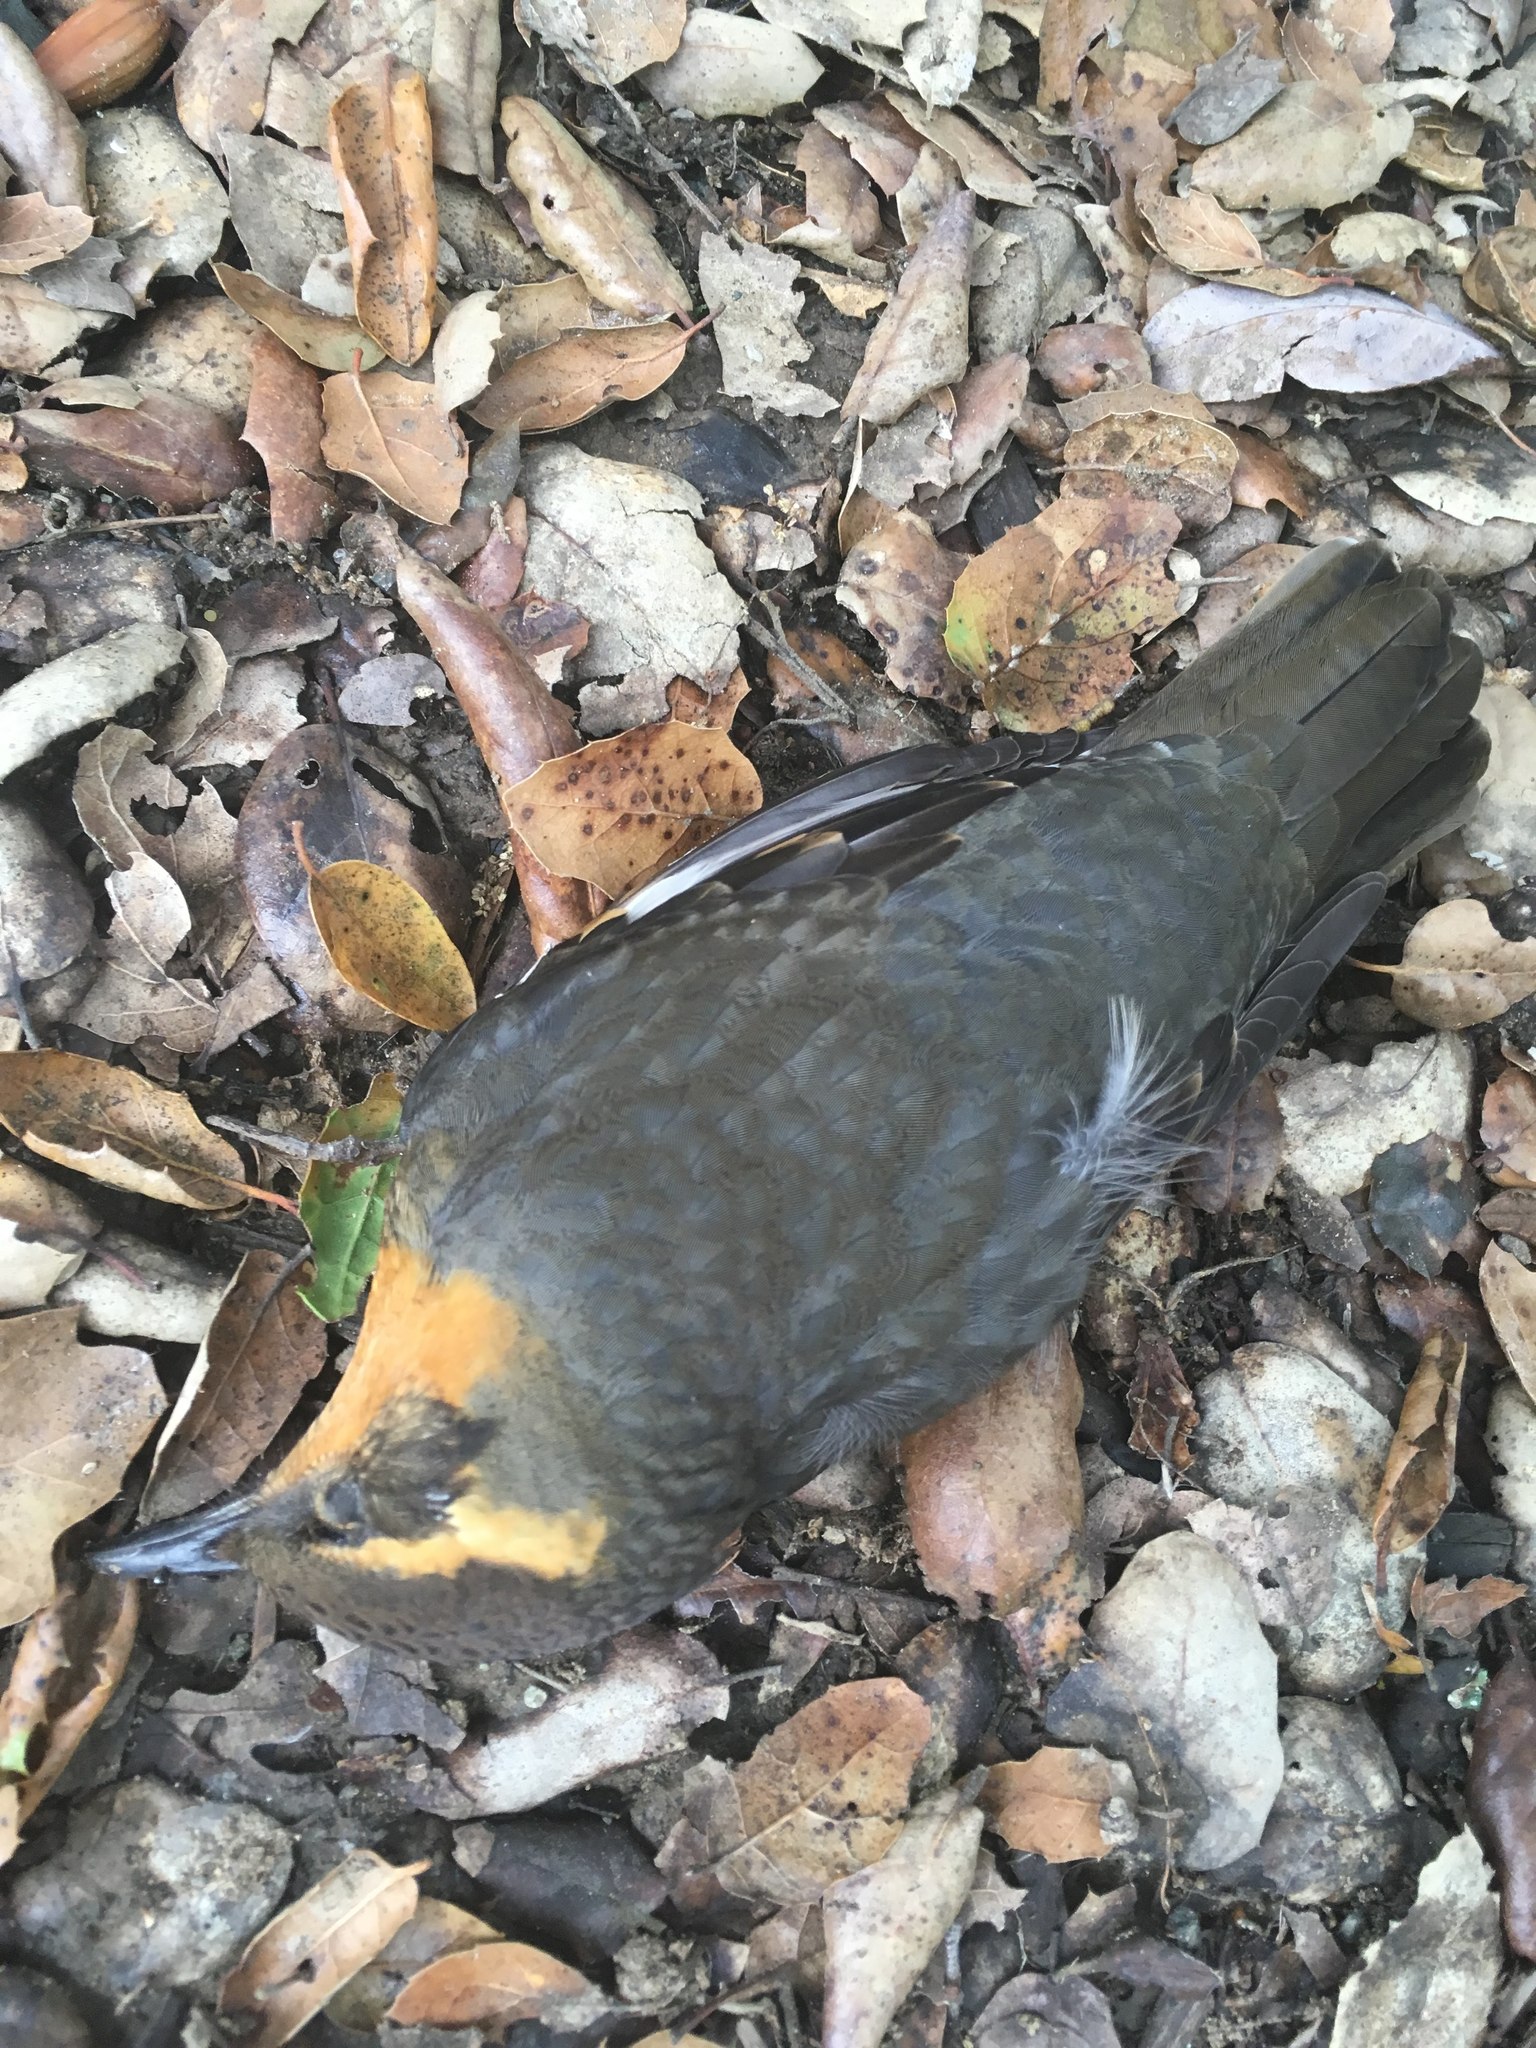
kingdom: Animalia
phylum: Chordata
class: Aves
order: Passeriformes
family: Turdidae
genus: Ixoreus
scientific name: Ixoreus naevius
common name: Varied thrush
